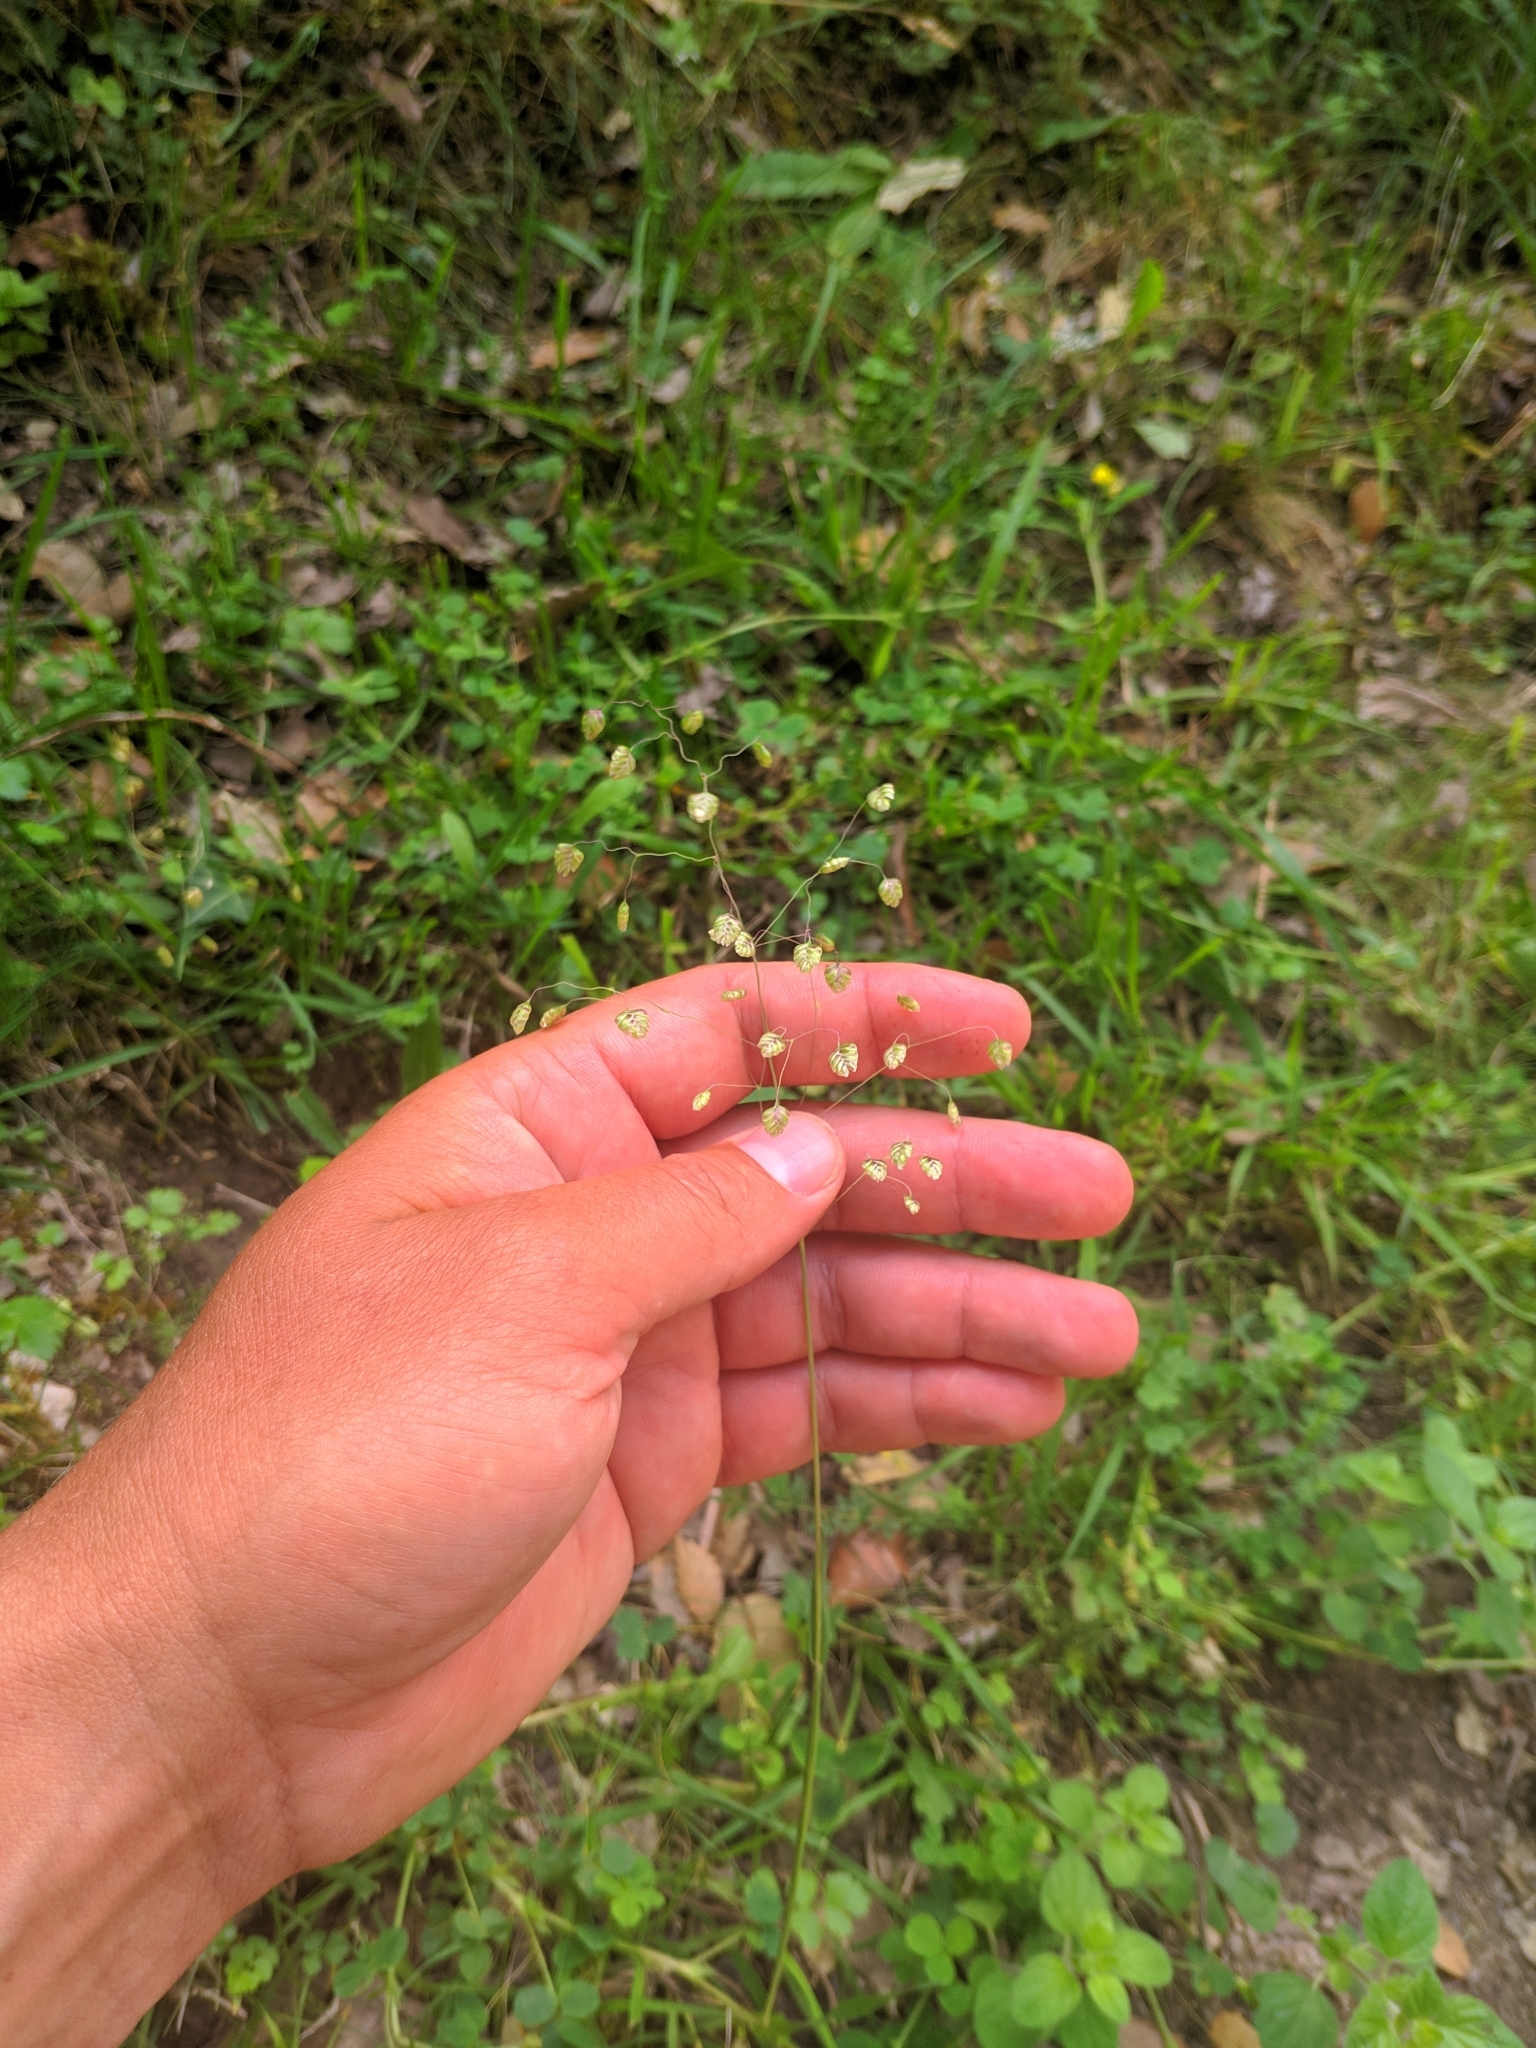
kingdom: Plantae
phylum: Tracheophyta
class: Liliopsida
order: Poales
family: Poaceae
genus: Briza
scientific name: Briza media
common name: Quaking grass
